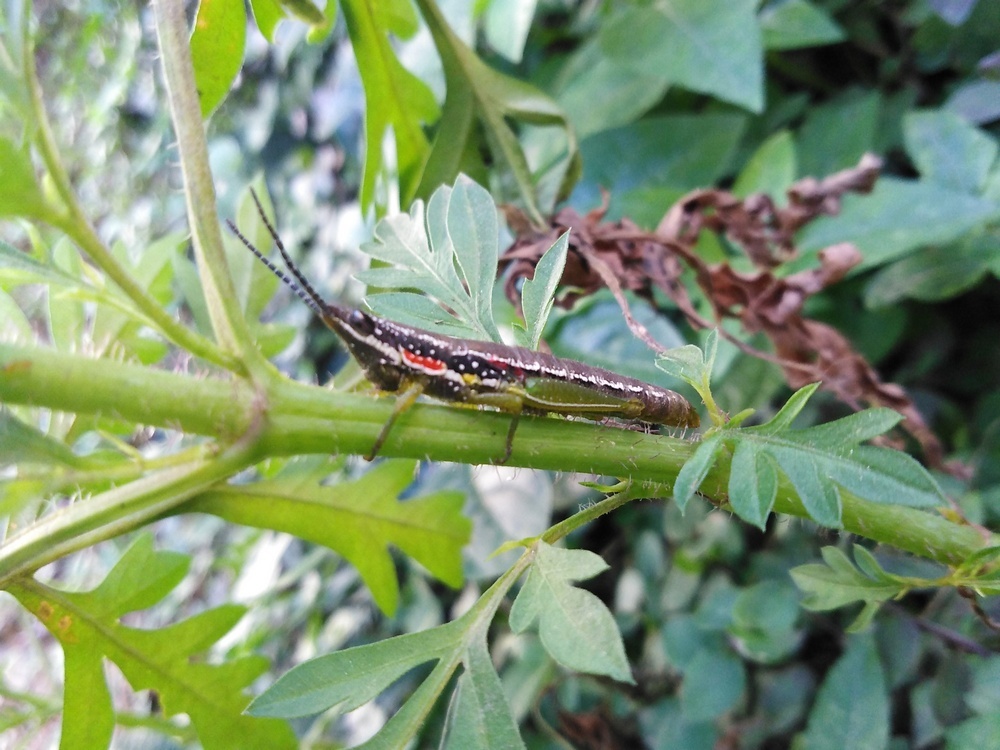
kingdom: Animalia
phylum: Arthropoda
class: Insecta
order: Orthoptera
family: Pyrgomorphidae
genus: Neorthacris
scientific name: Neorthacris simulans
